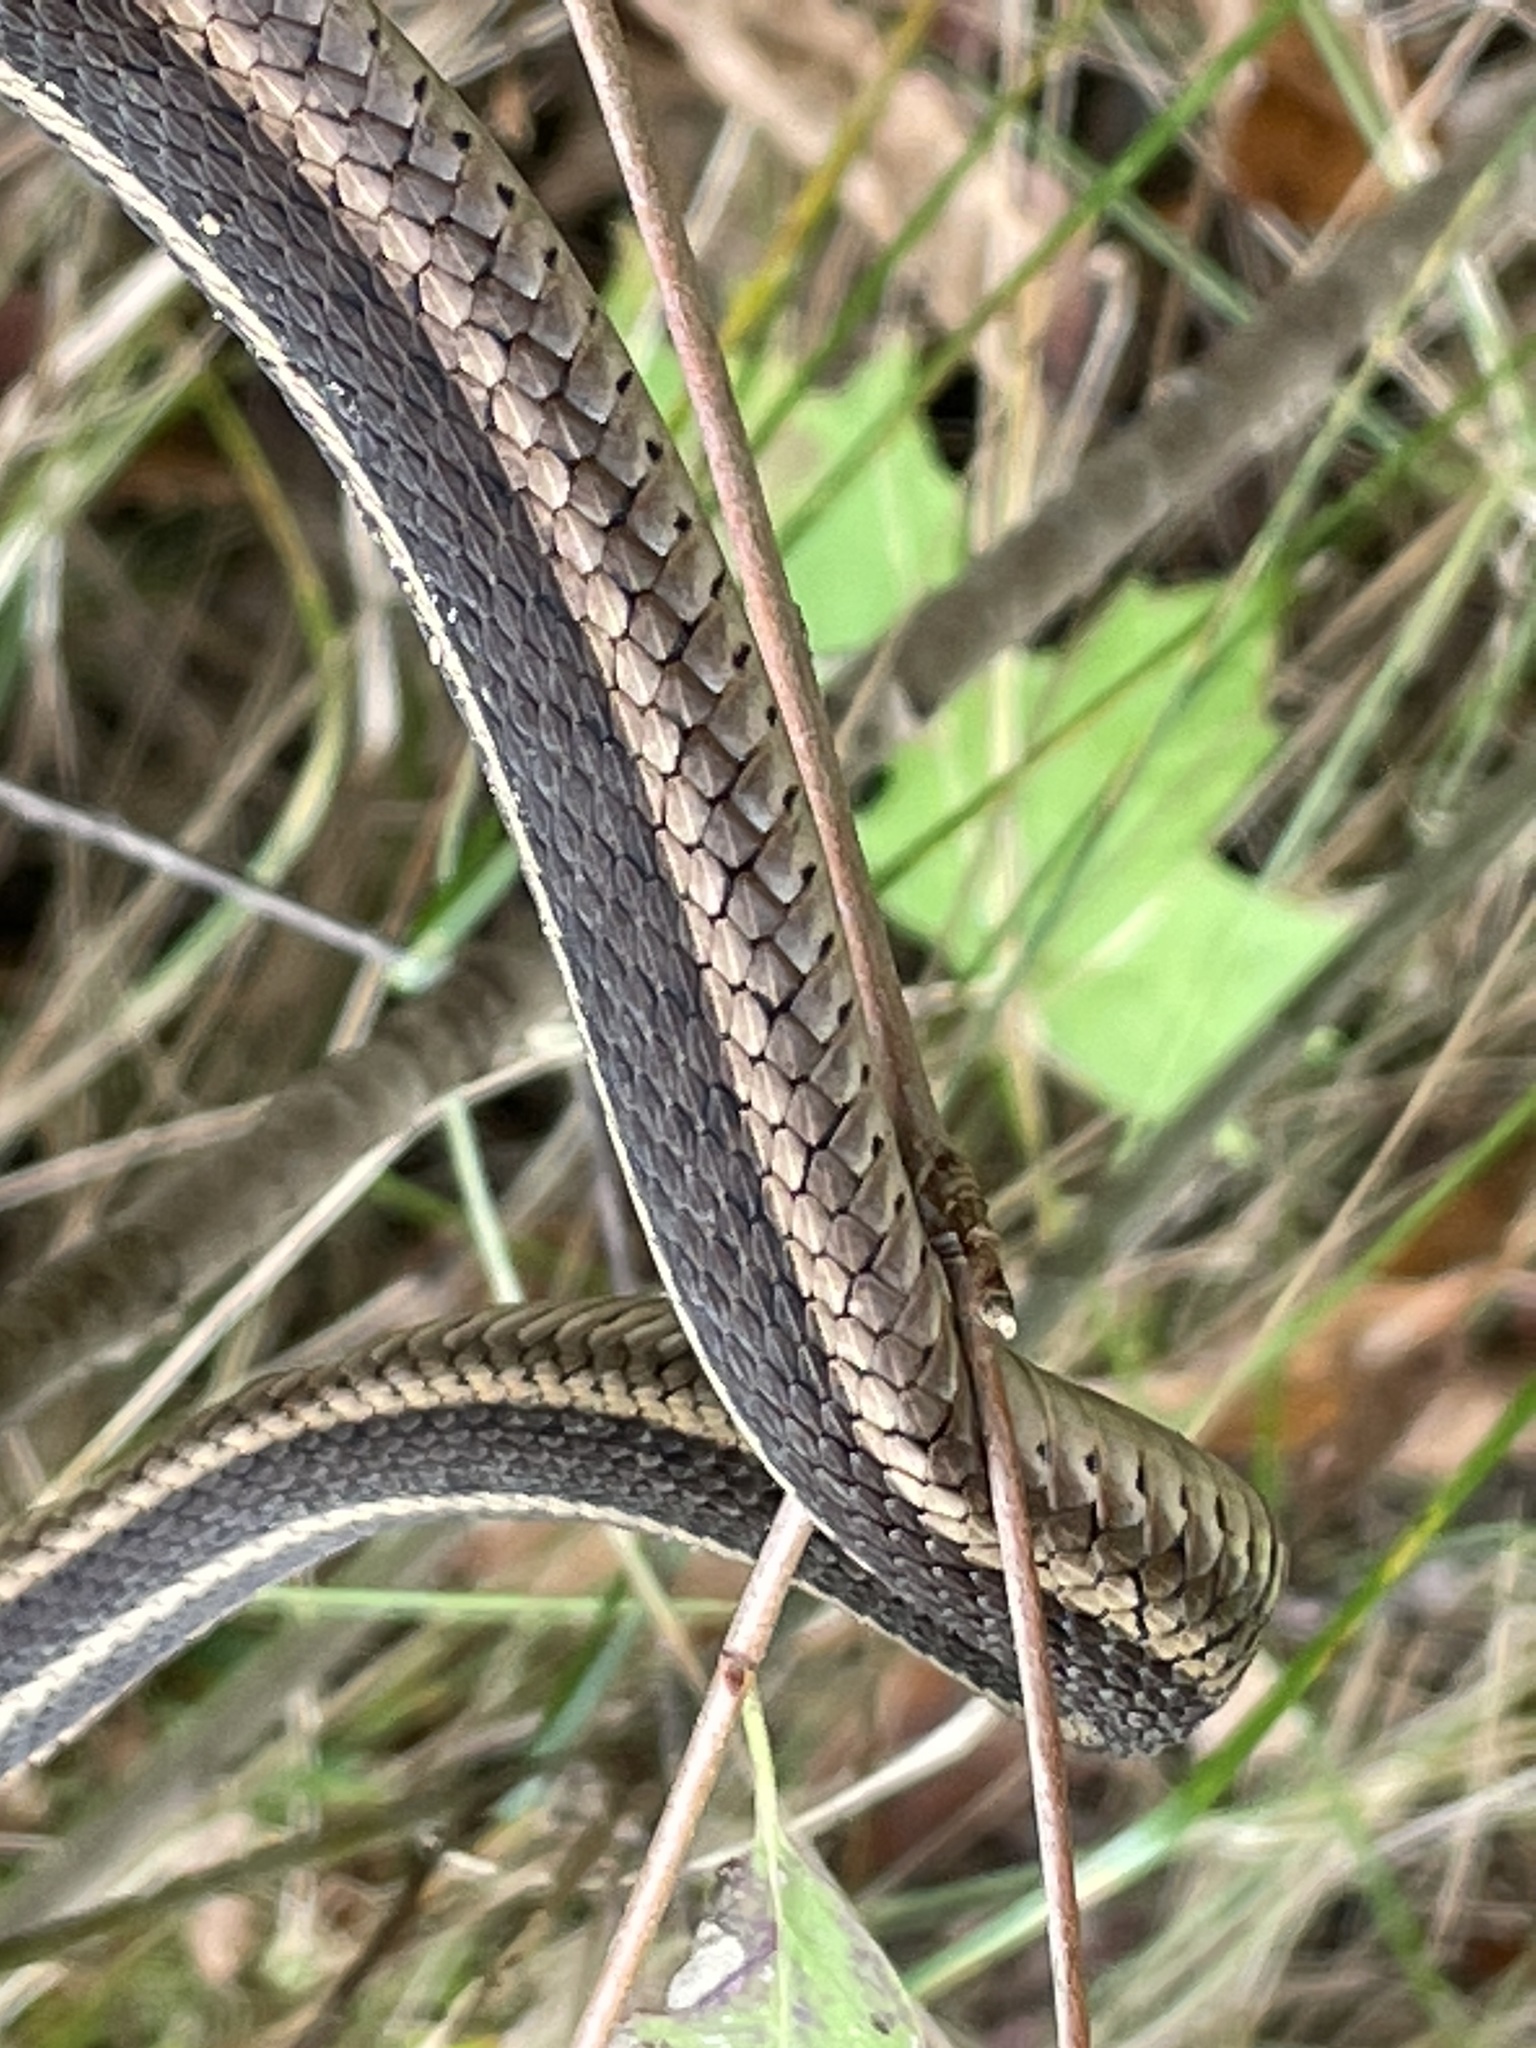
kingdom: Animalia
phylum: Chordata
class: Squamata
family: Colubridae
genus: Thamnophis
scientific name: Thamnophis sirtalis
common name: Common garter snake
